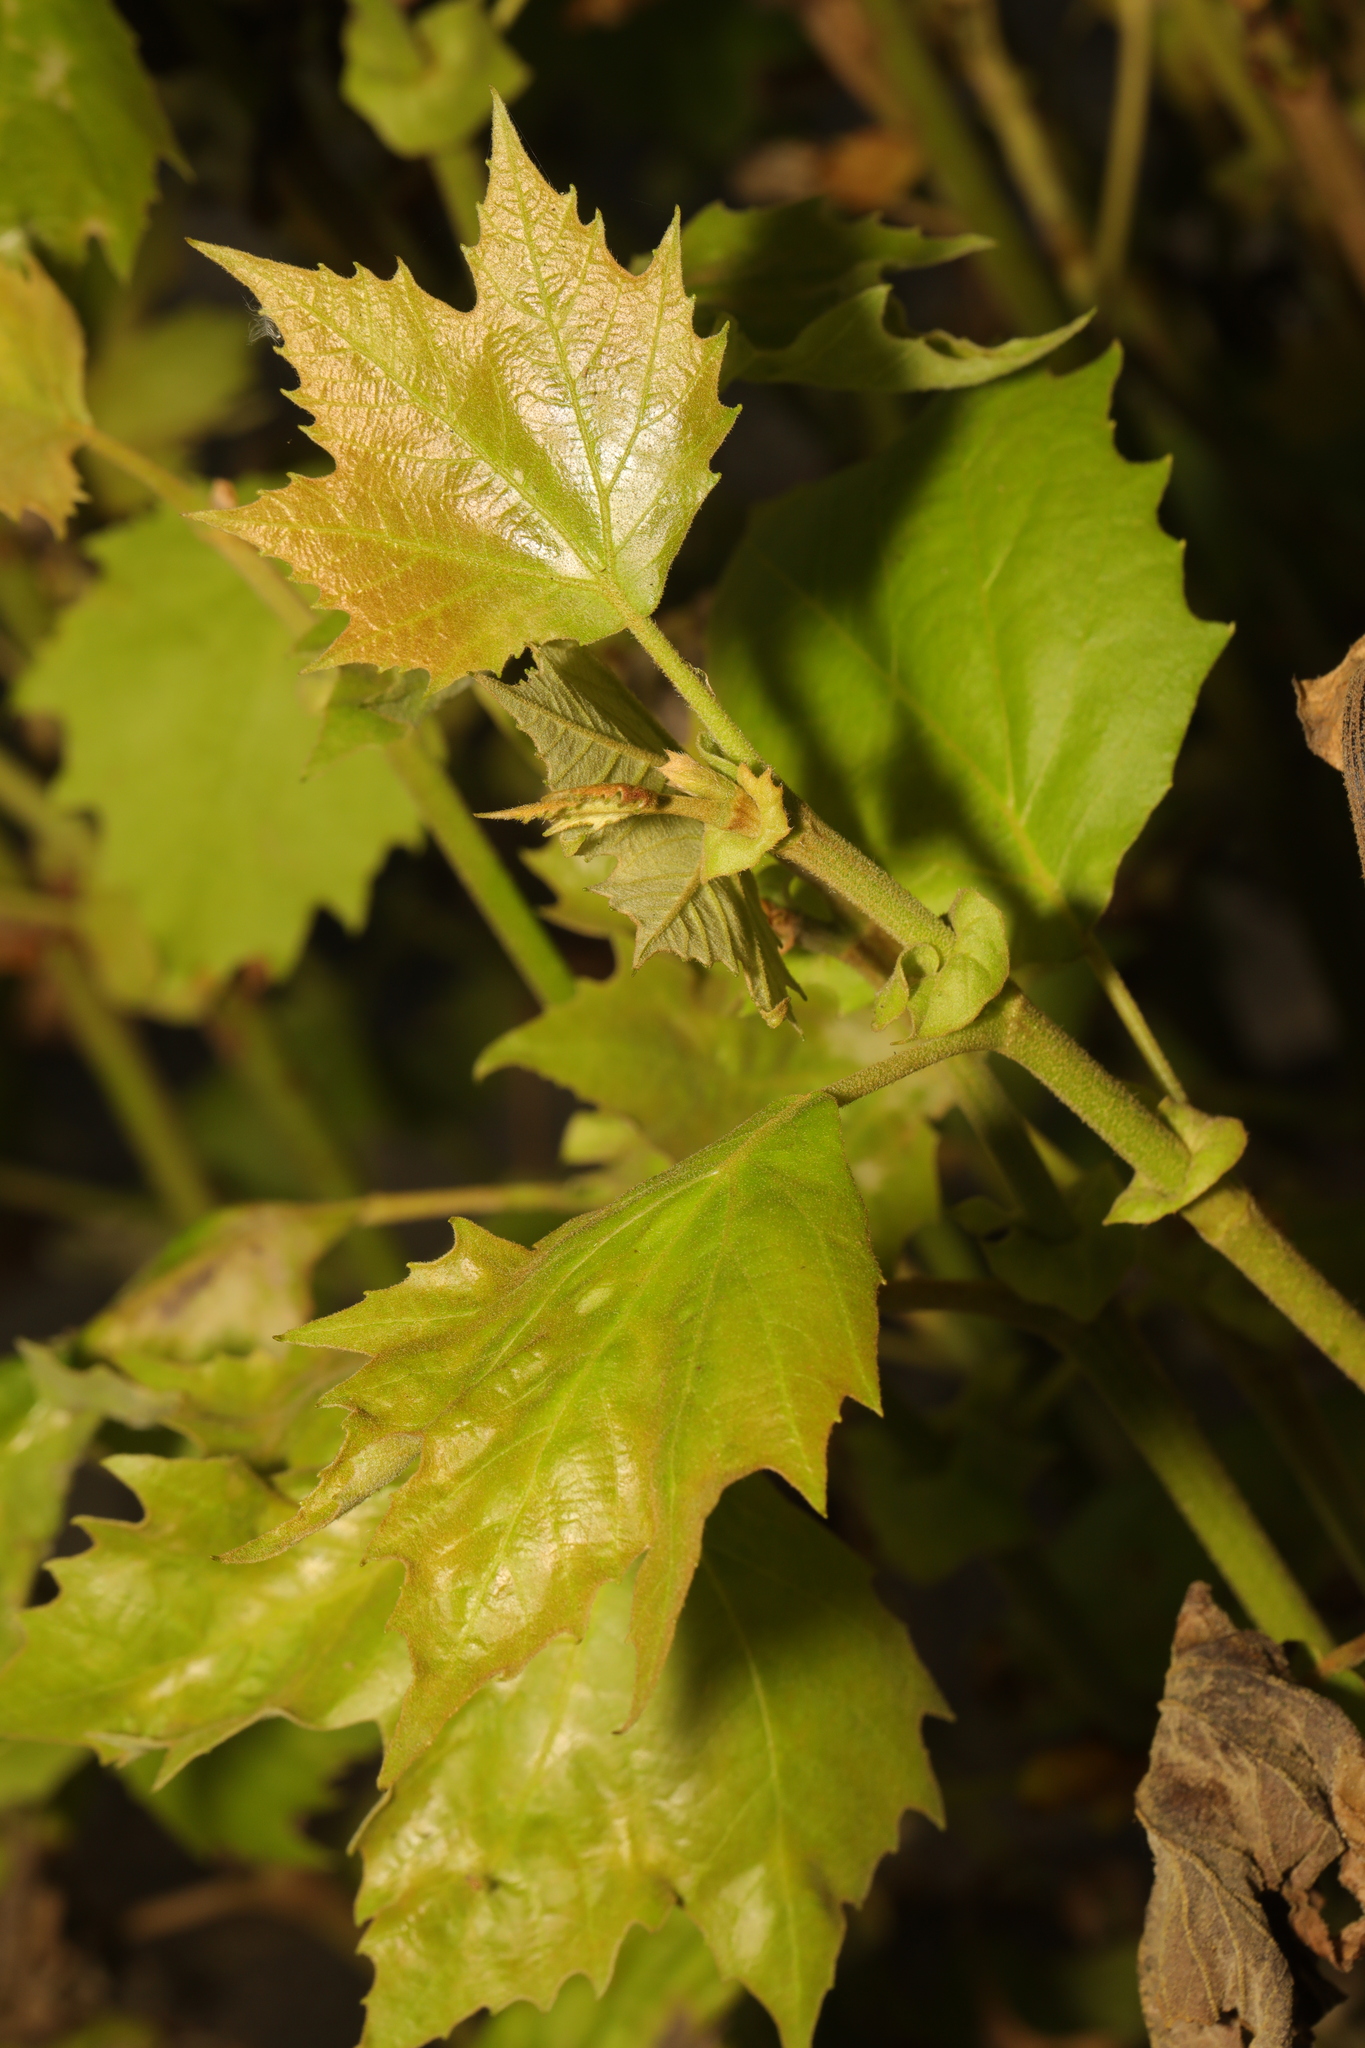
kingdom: Plantae
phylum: Tracheophyta
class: Magnoliopsida
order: Proteales
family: Platanaceae
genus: Platanus
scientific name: Platanus hispanica
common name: London plane
